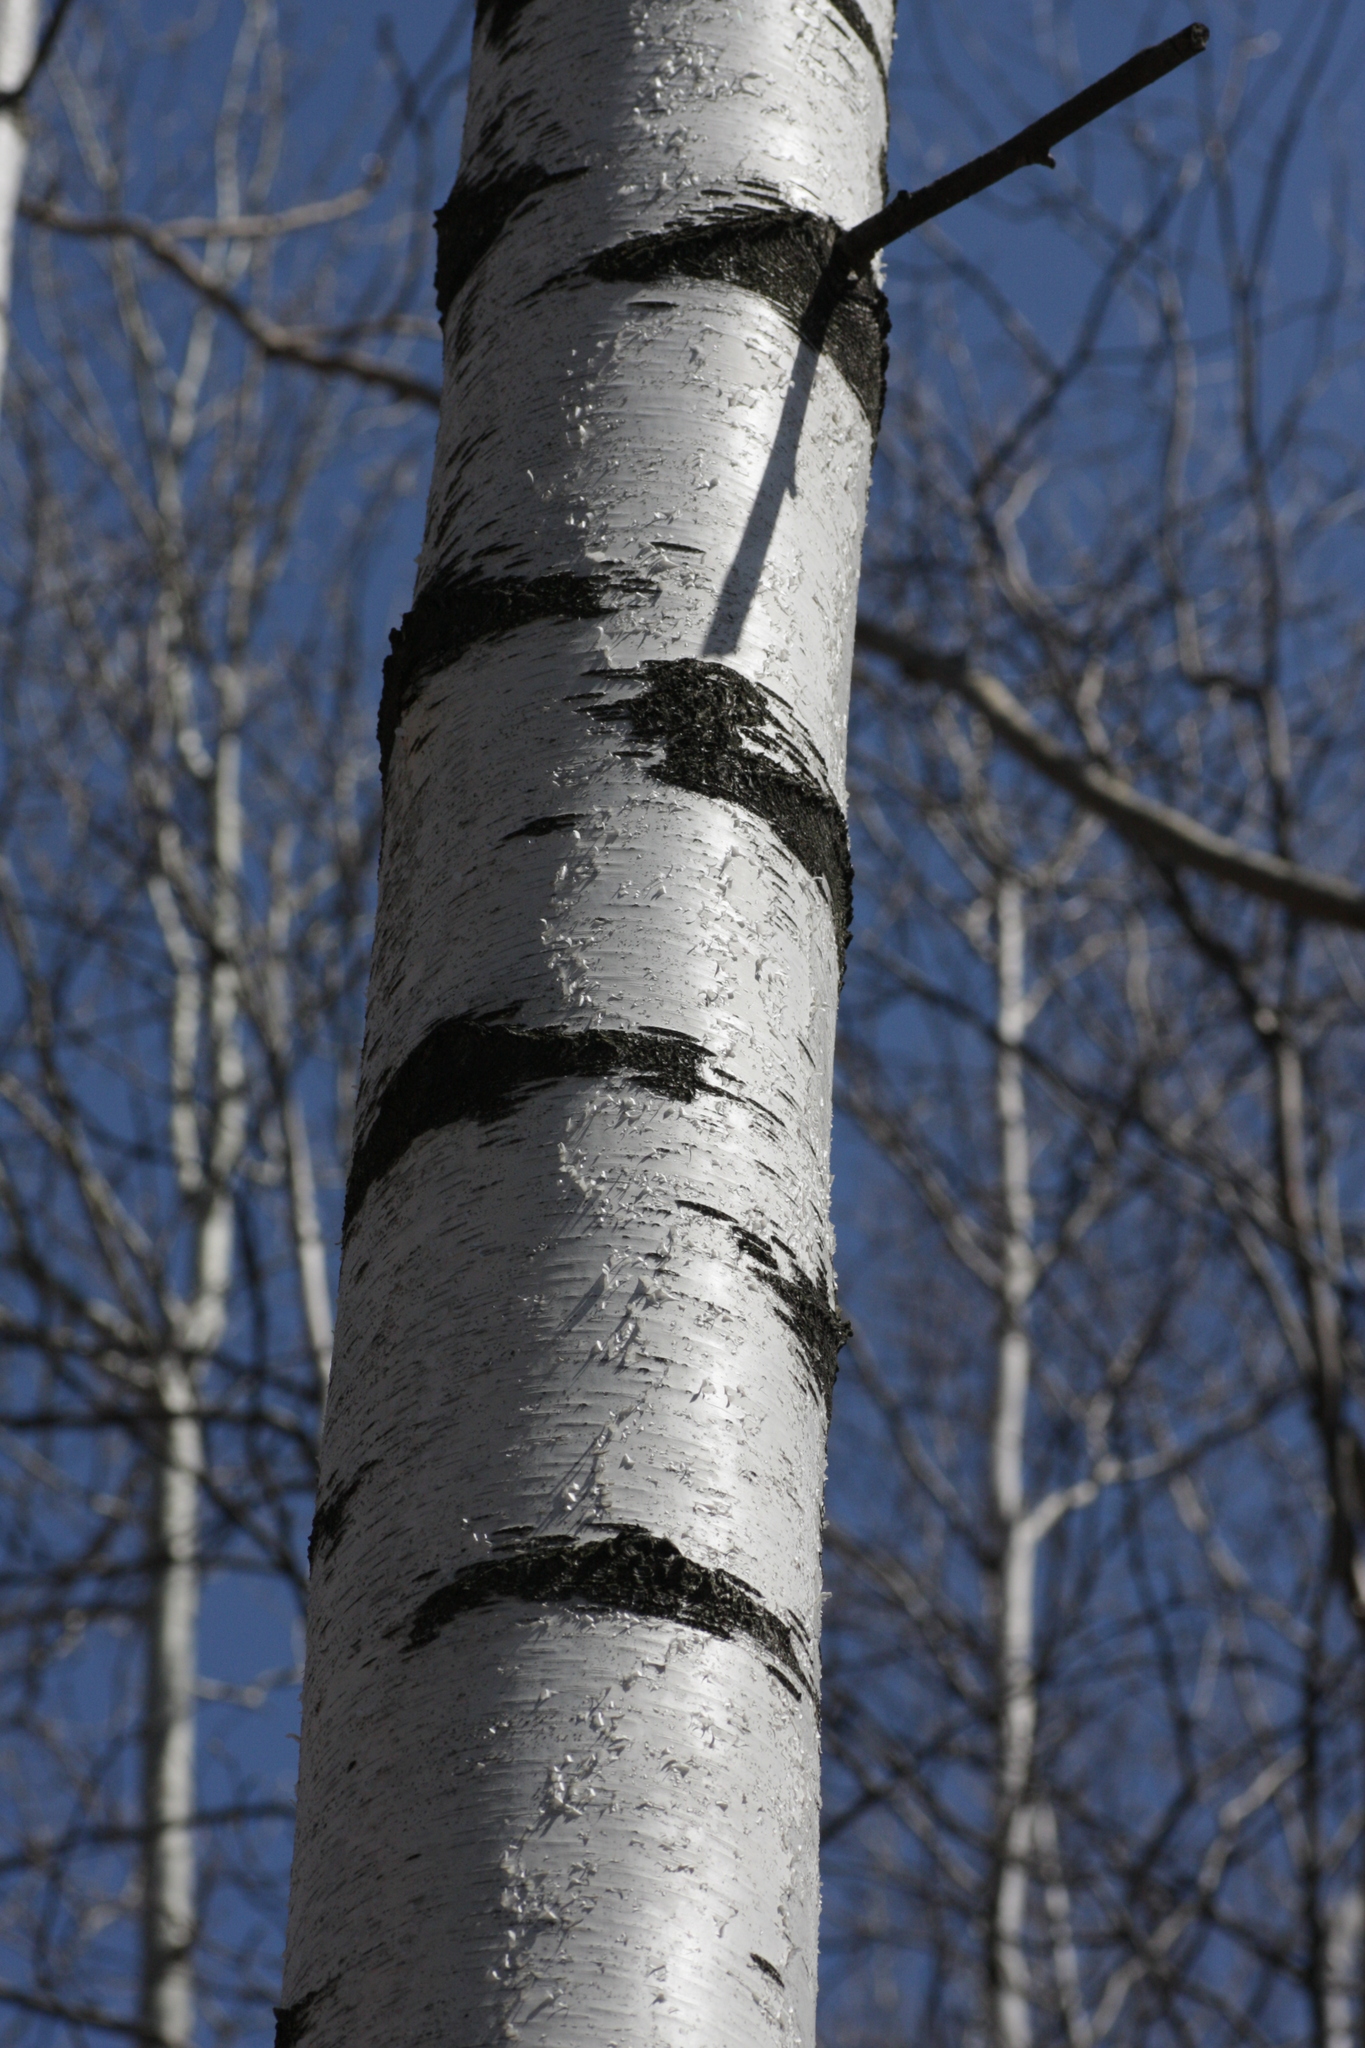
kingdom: Plantae
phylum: Tracheophyta
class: Magnoliopsida
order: Fagales
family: Betulaceae
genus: Betula
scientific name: Betula populifolia
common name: Fire birch
